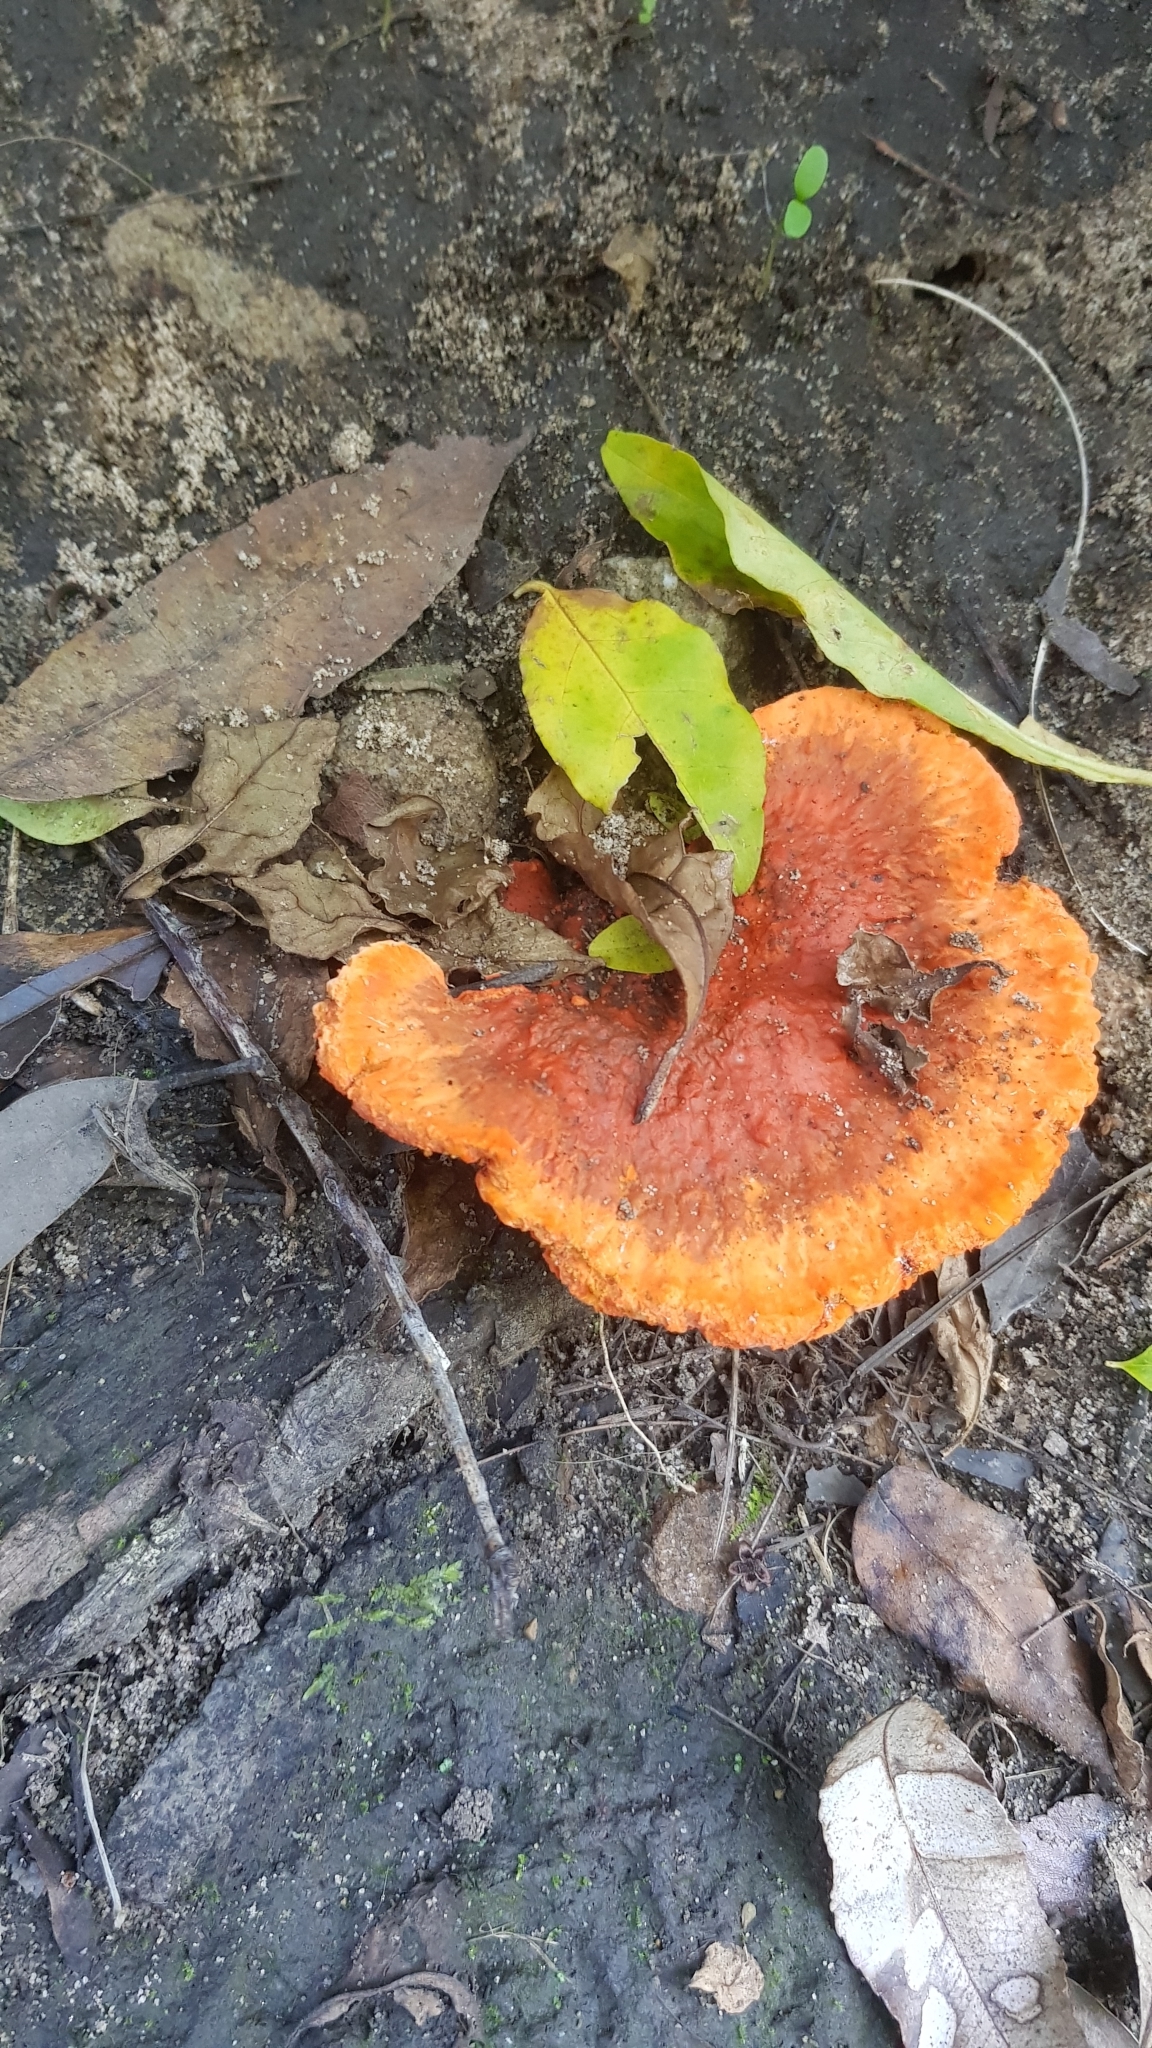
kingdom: Fungi
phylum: Basidiomycota
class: Agaricomycetes
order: Polyporales
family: Polyporaceae
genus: Trametes
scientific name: Trametes coccinea
